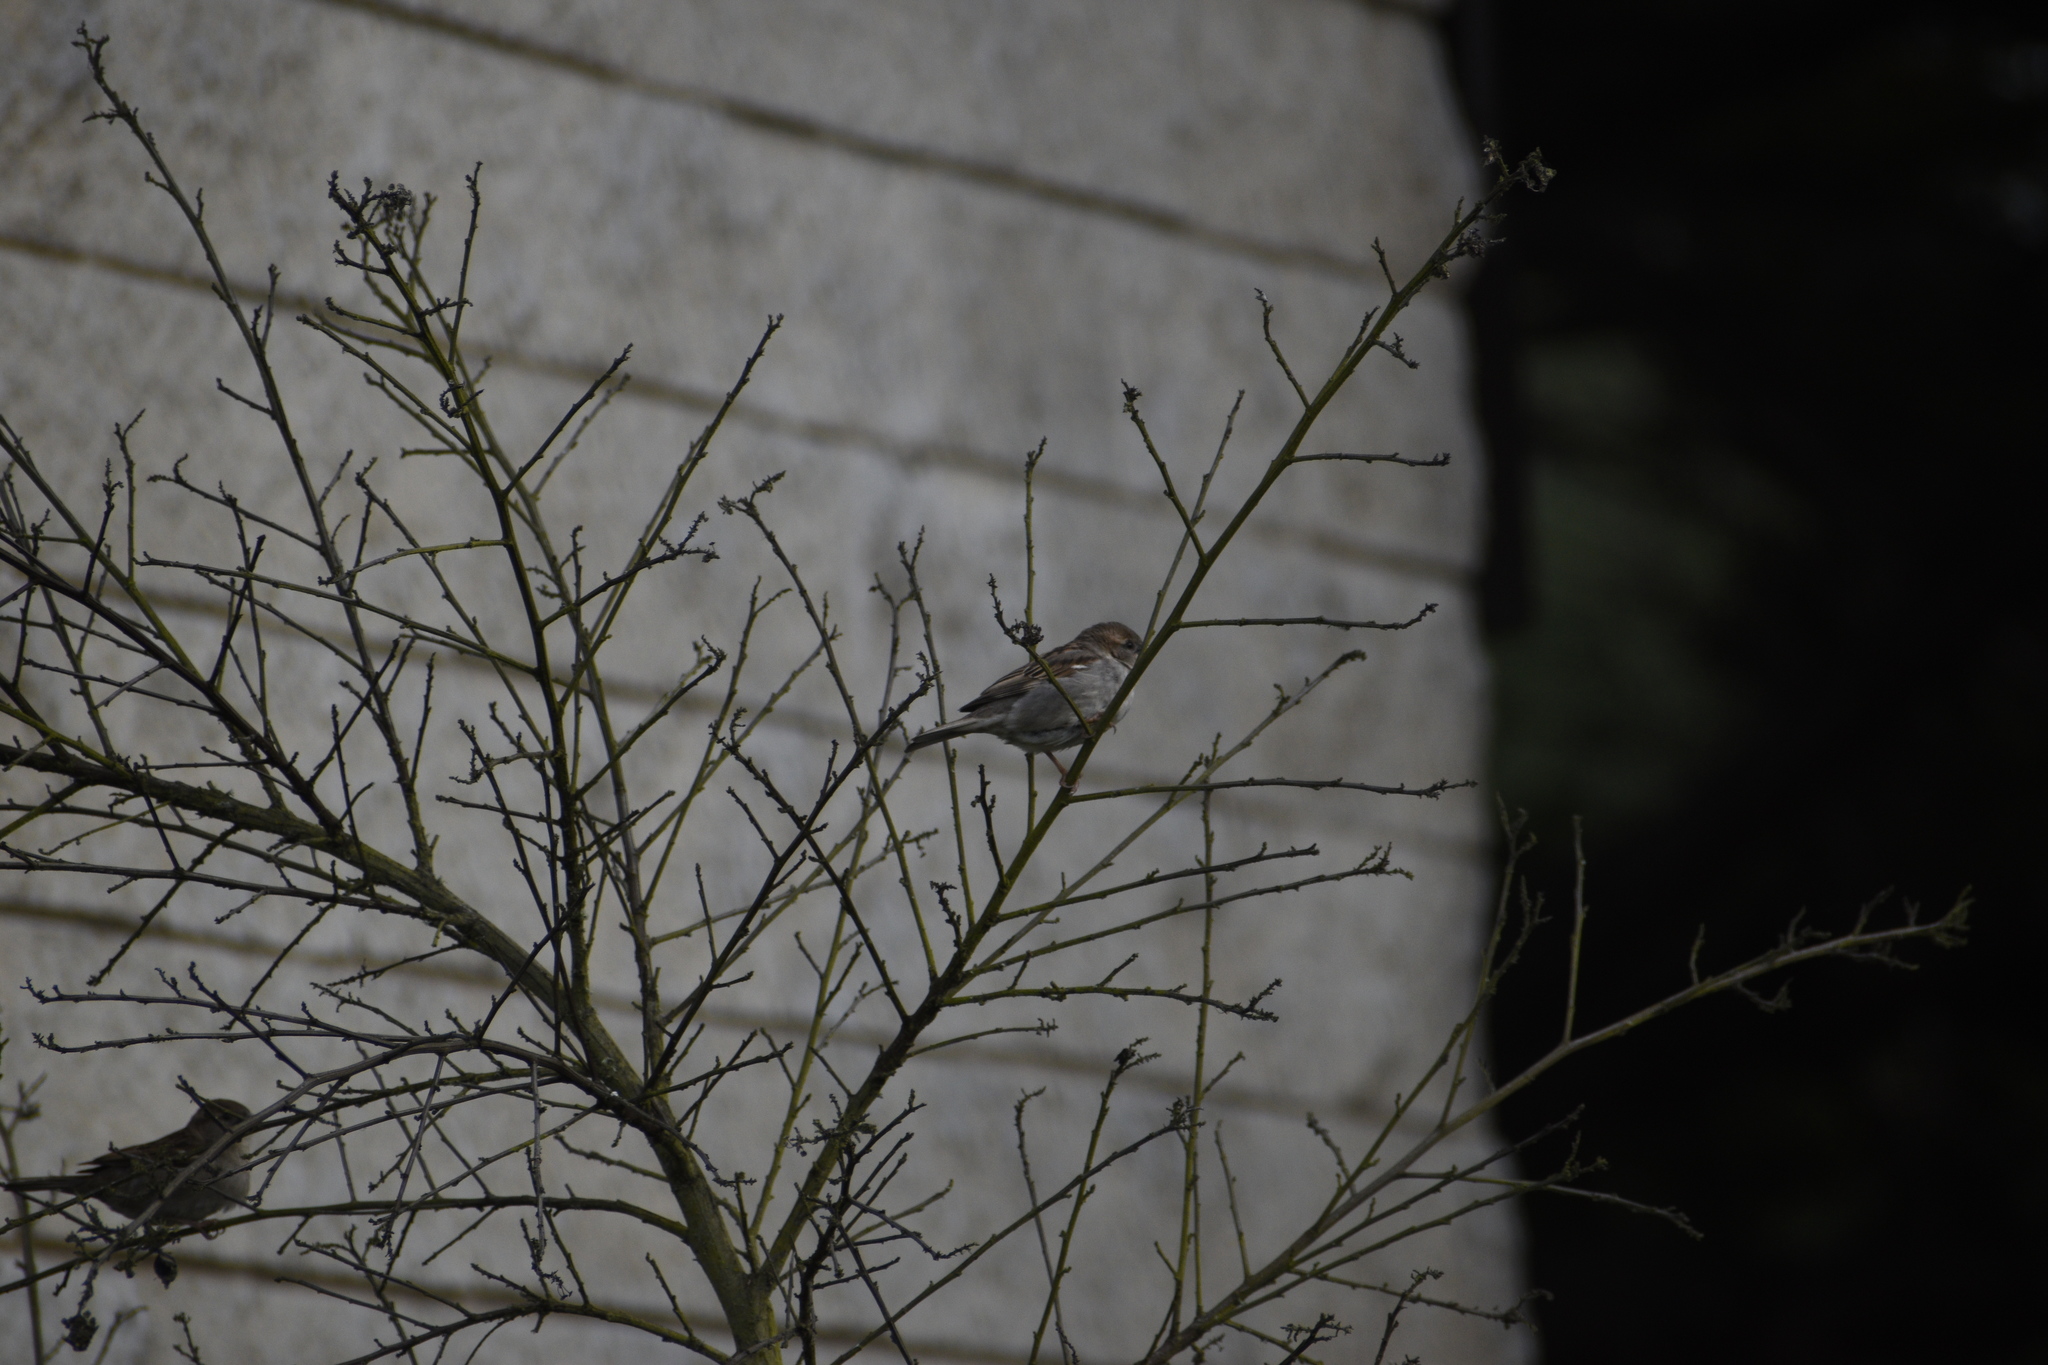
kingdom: Animalia
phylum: Chordata
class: Aves
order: Passeriformes
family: Passeridae
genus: Passer
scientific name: Passer domesticus
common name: House sparrow
